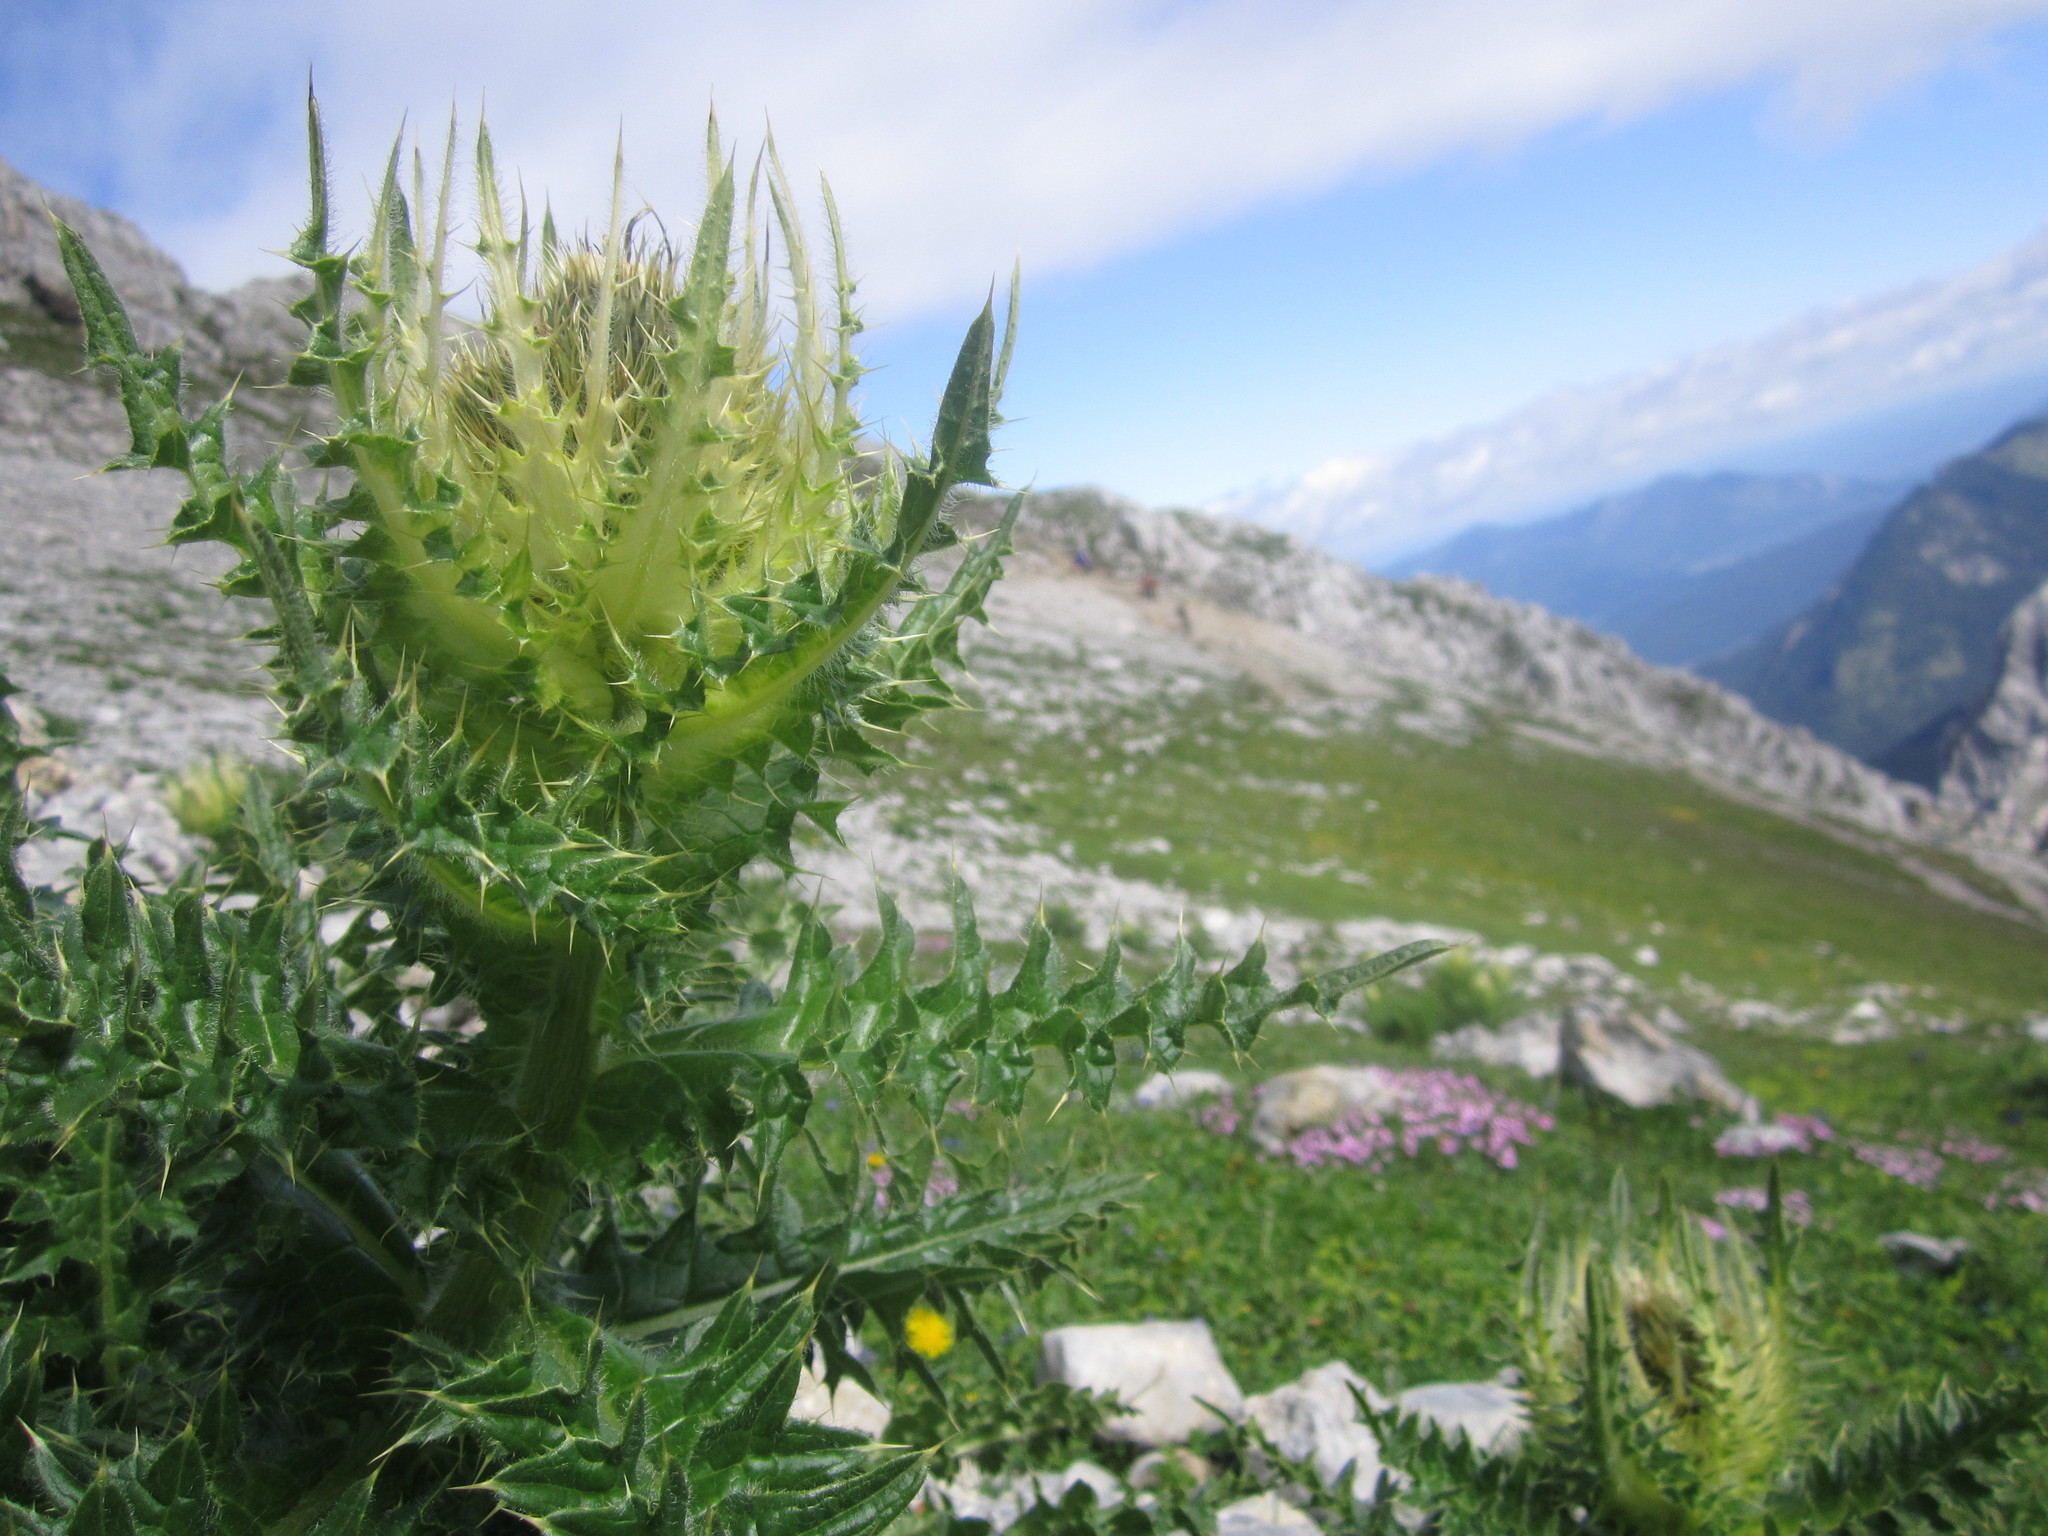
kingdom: Plantae
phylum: Tracheophyta
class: Magnoliopsida
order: Asterales
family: Asteraceae
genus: Cirsium
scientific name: Cirsium spinosissimum
